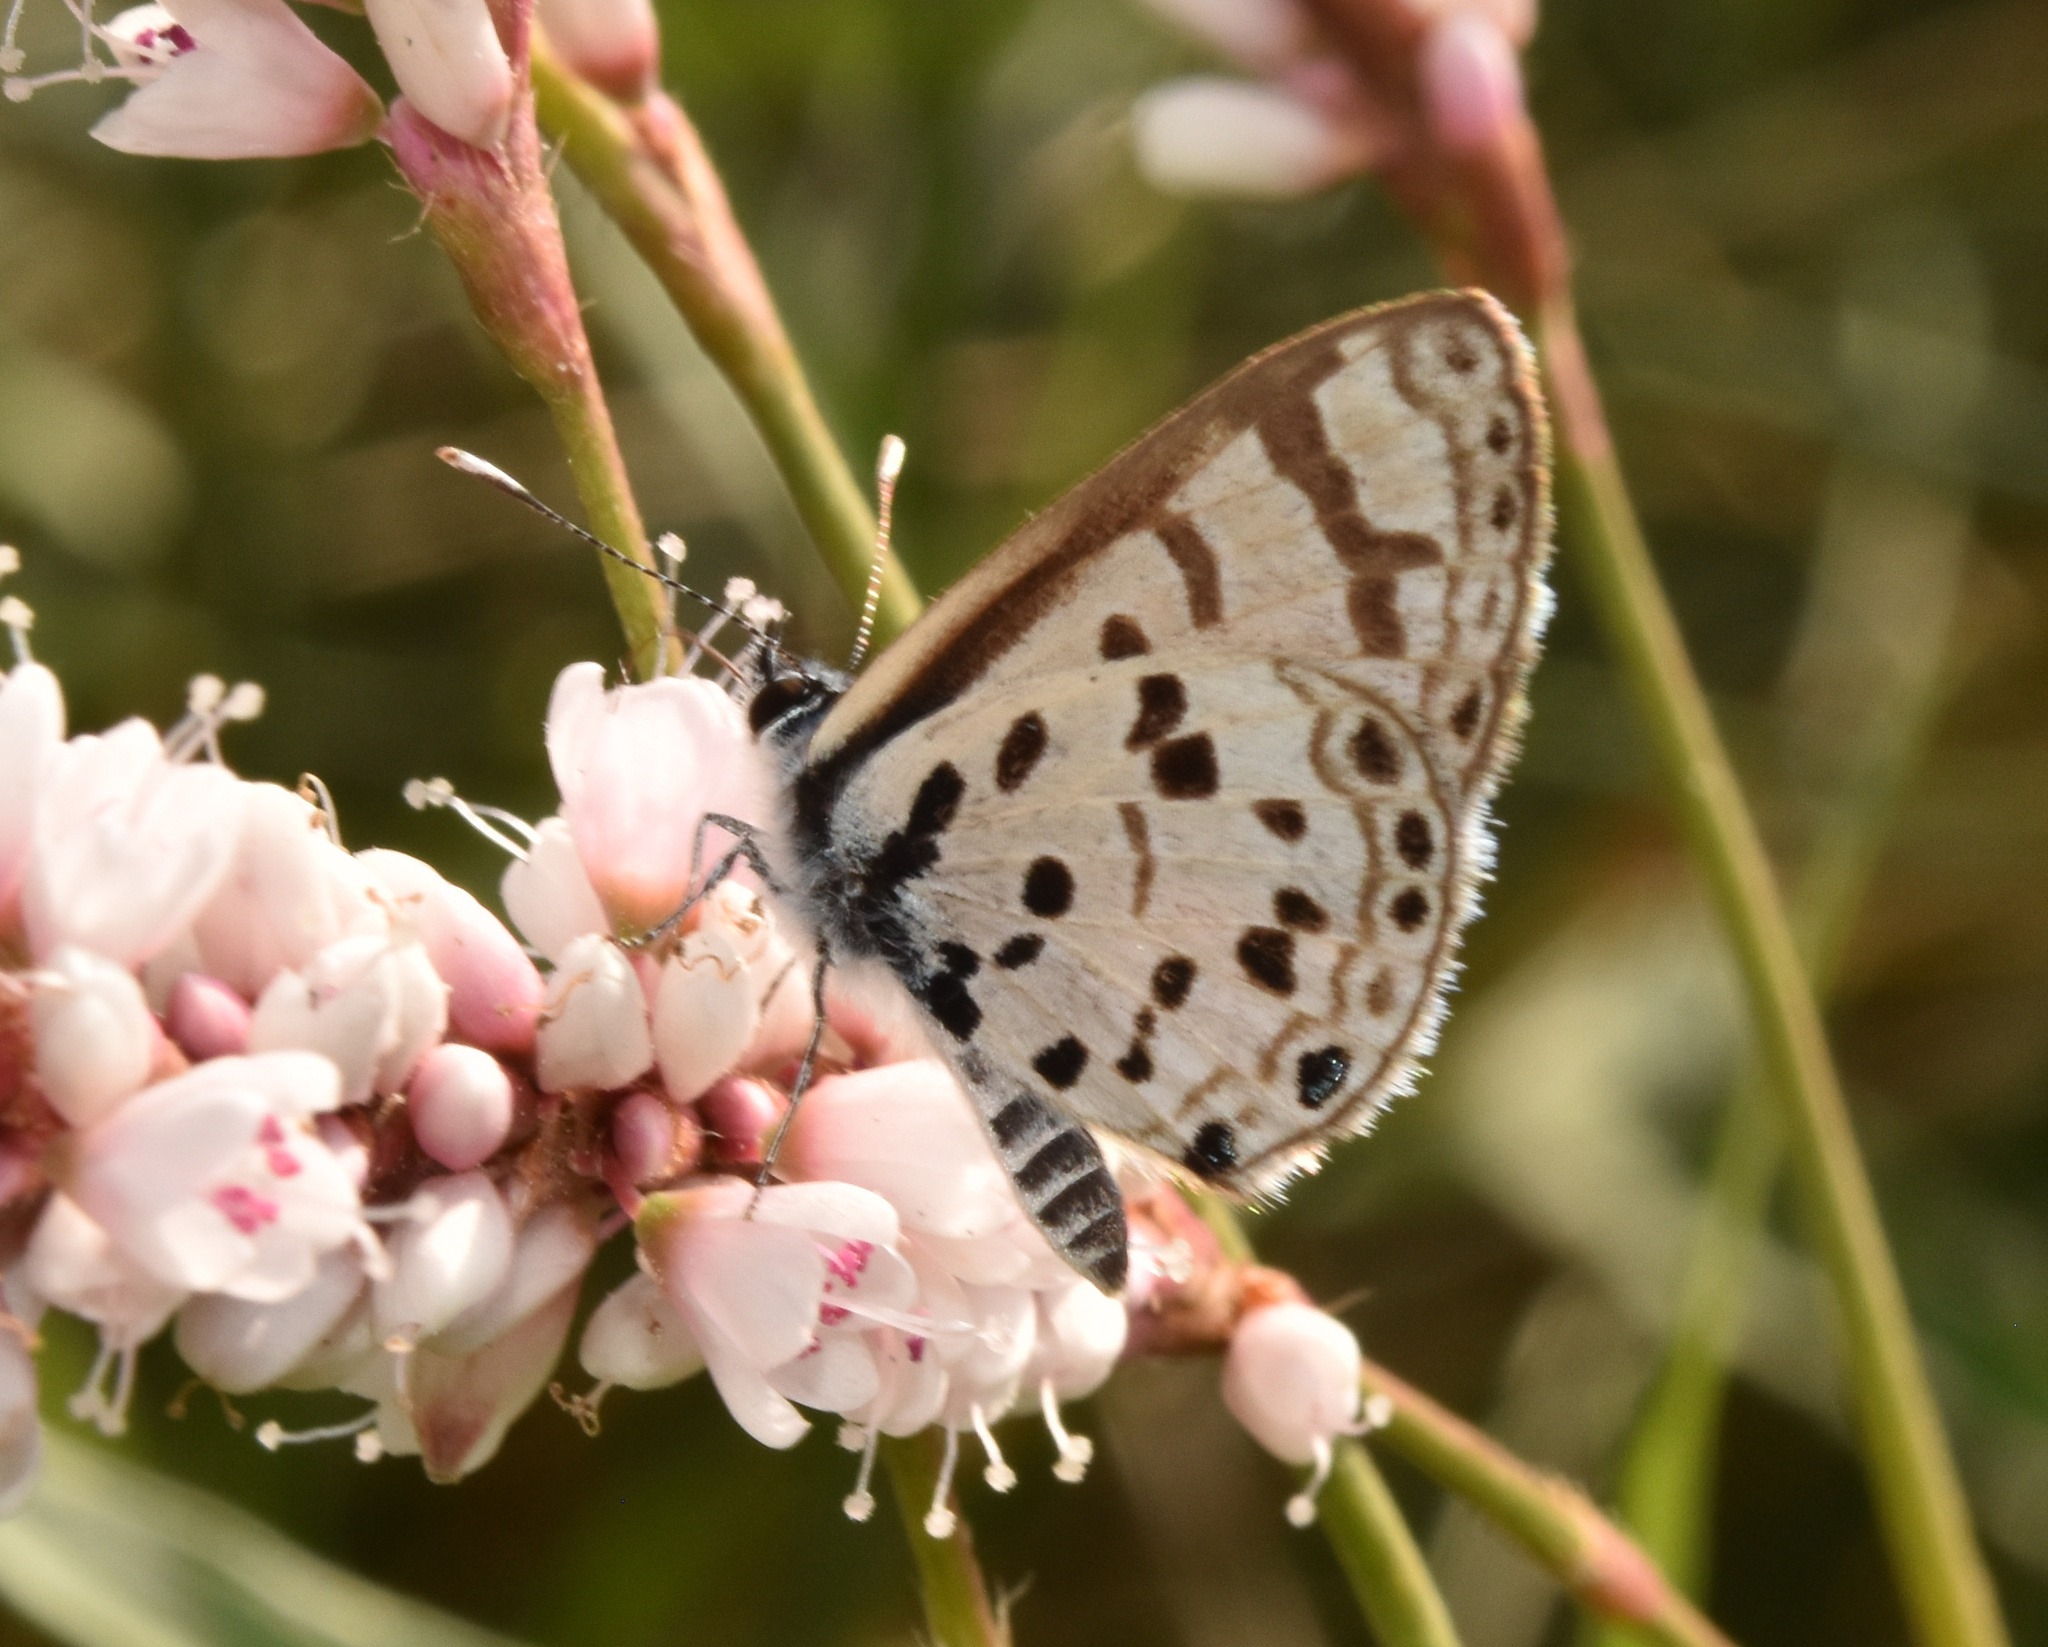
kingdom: Animalia
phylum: Arthropoda
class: Insecta
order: Lepidoptera
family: Lycaenidae
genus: Azanus
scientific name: Azanus natalensis
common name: Natal babul blue
